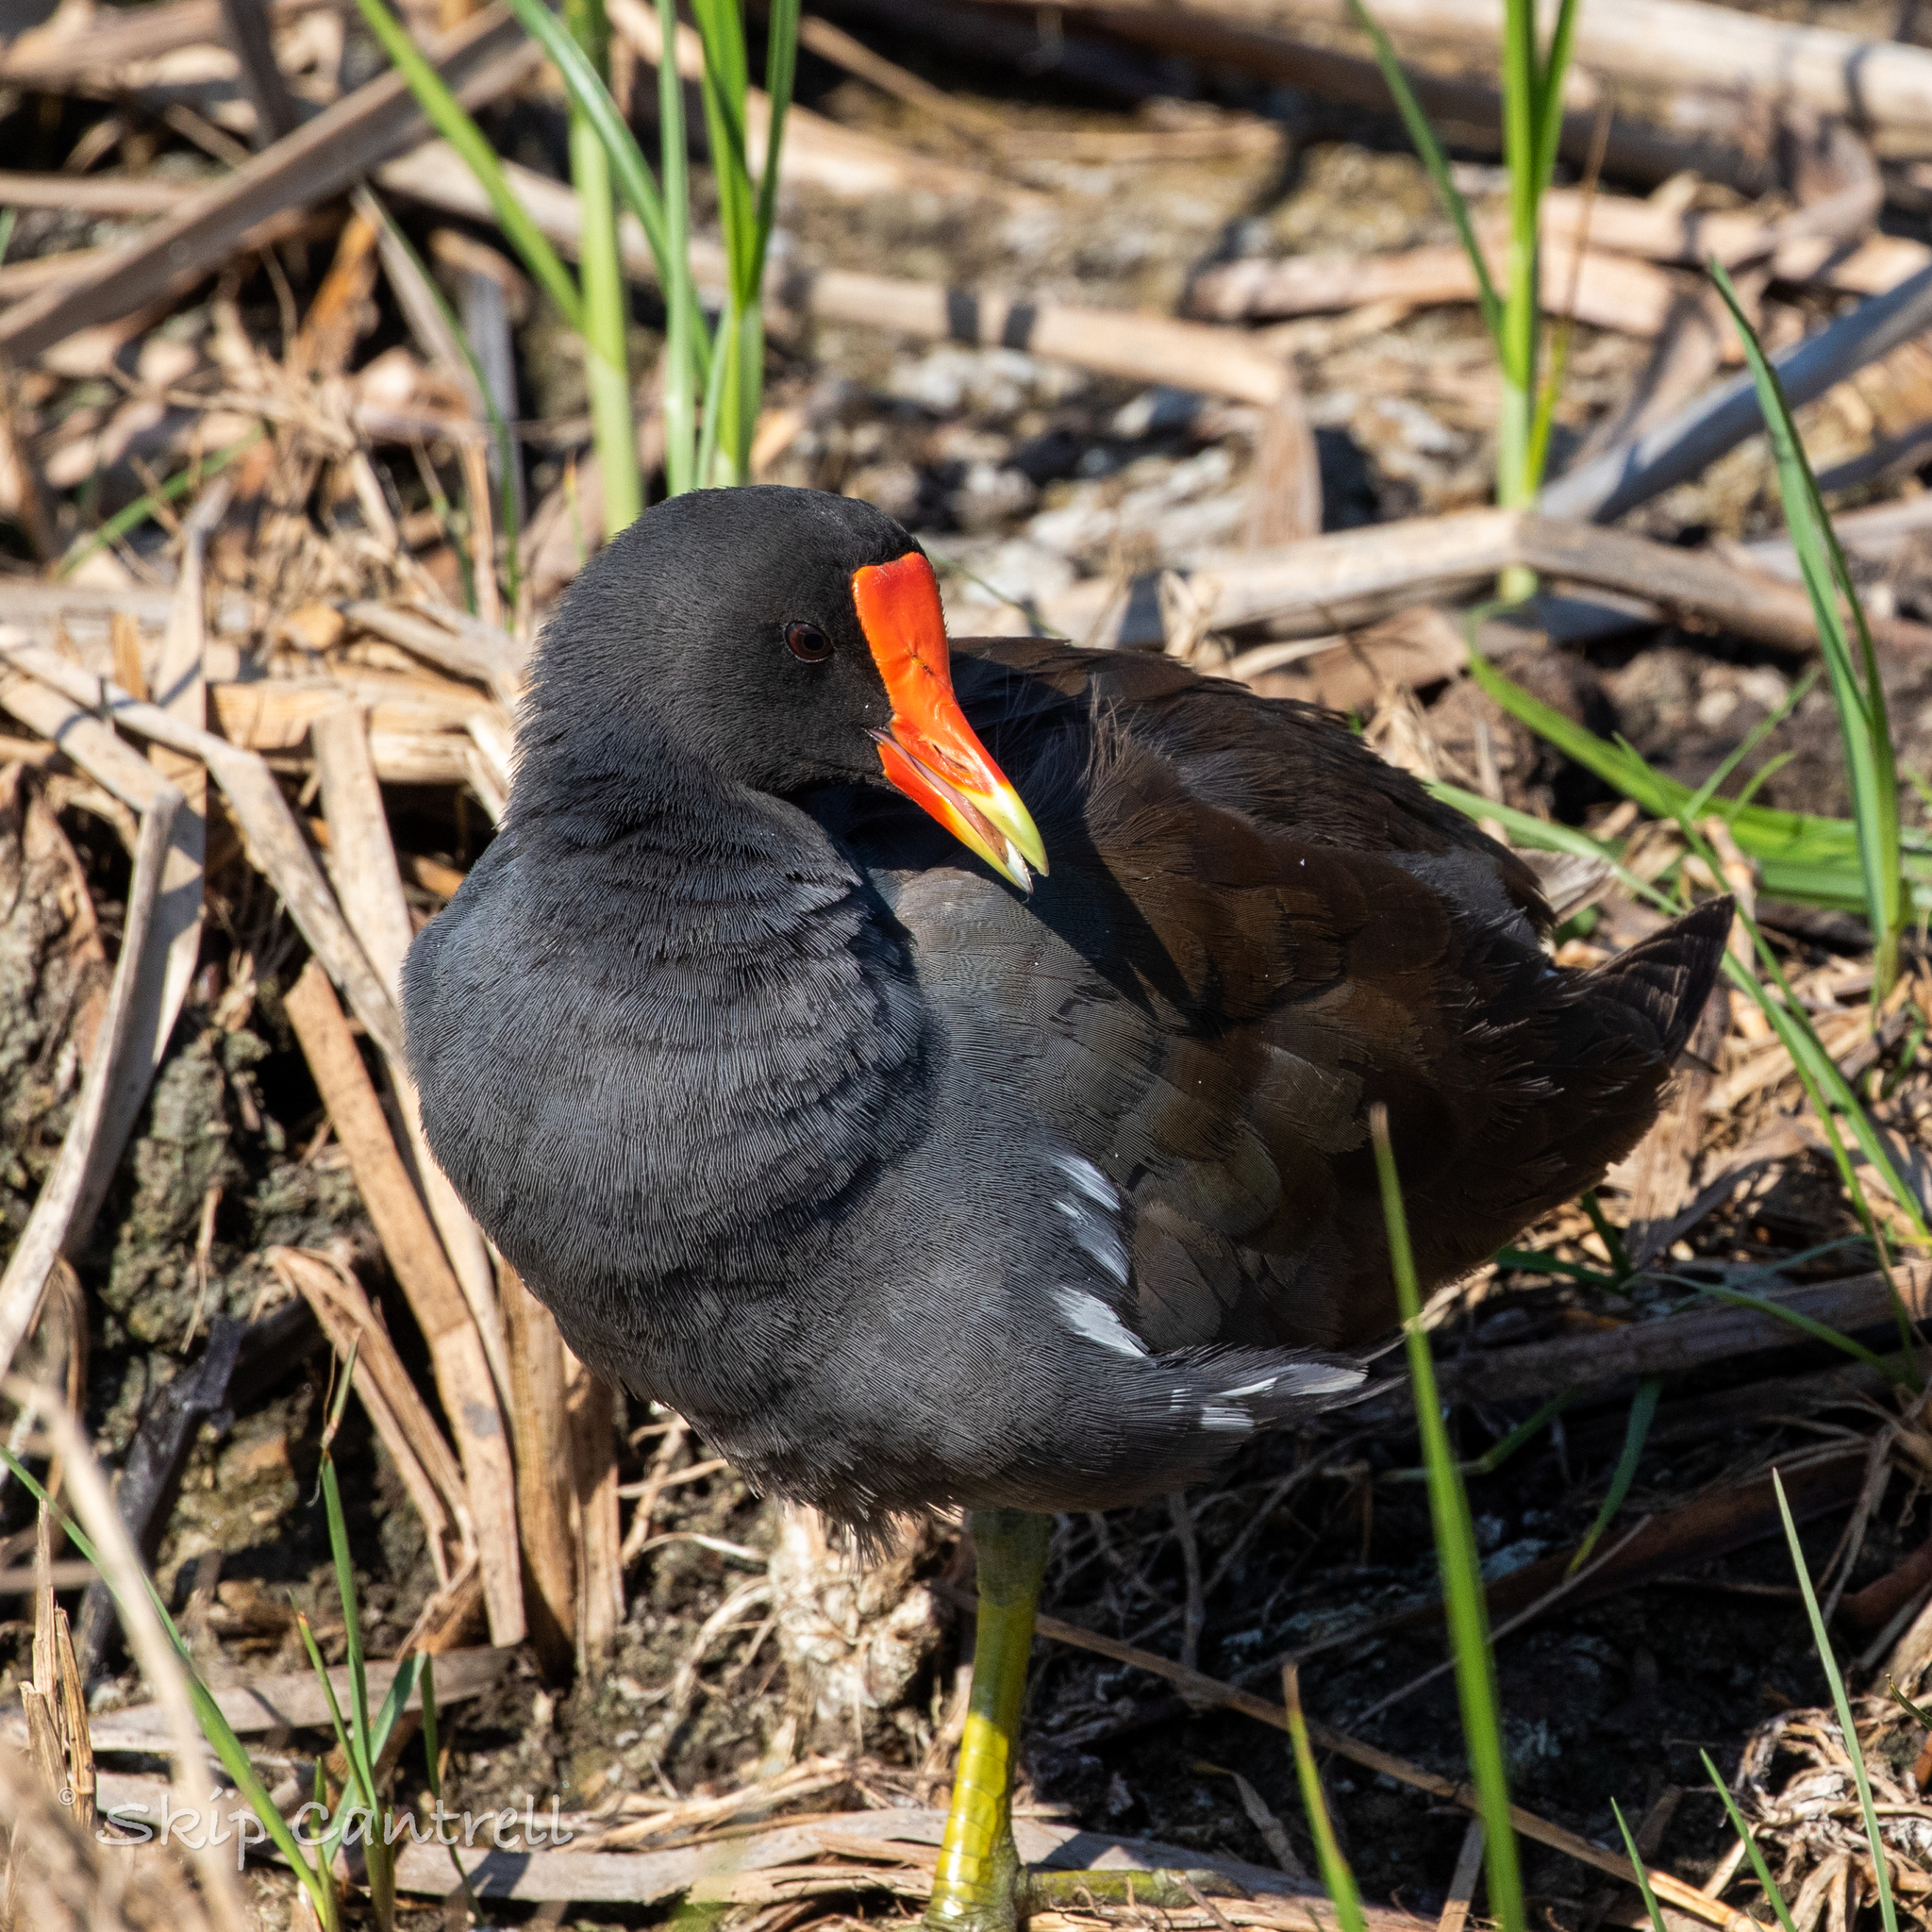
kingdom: Animalia
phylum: Chordata
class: Aves
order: Gruiformes
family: Rallidae
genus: Gallinula
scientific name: Gallinula chloropus
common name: Common moorhen
